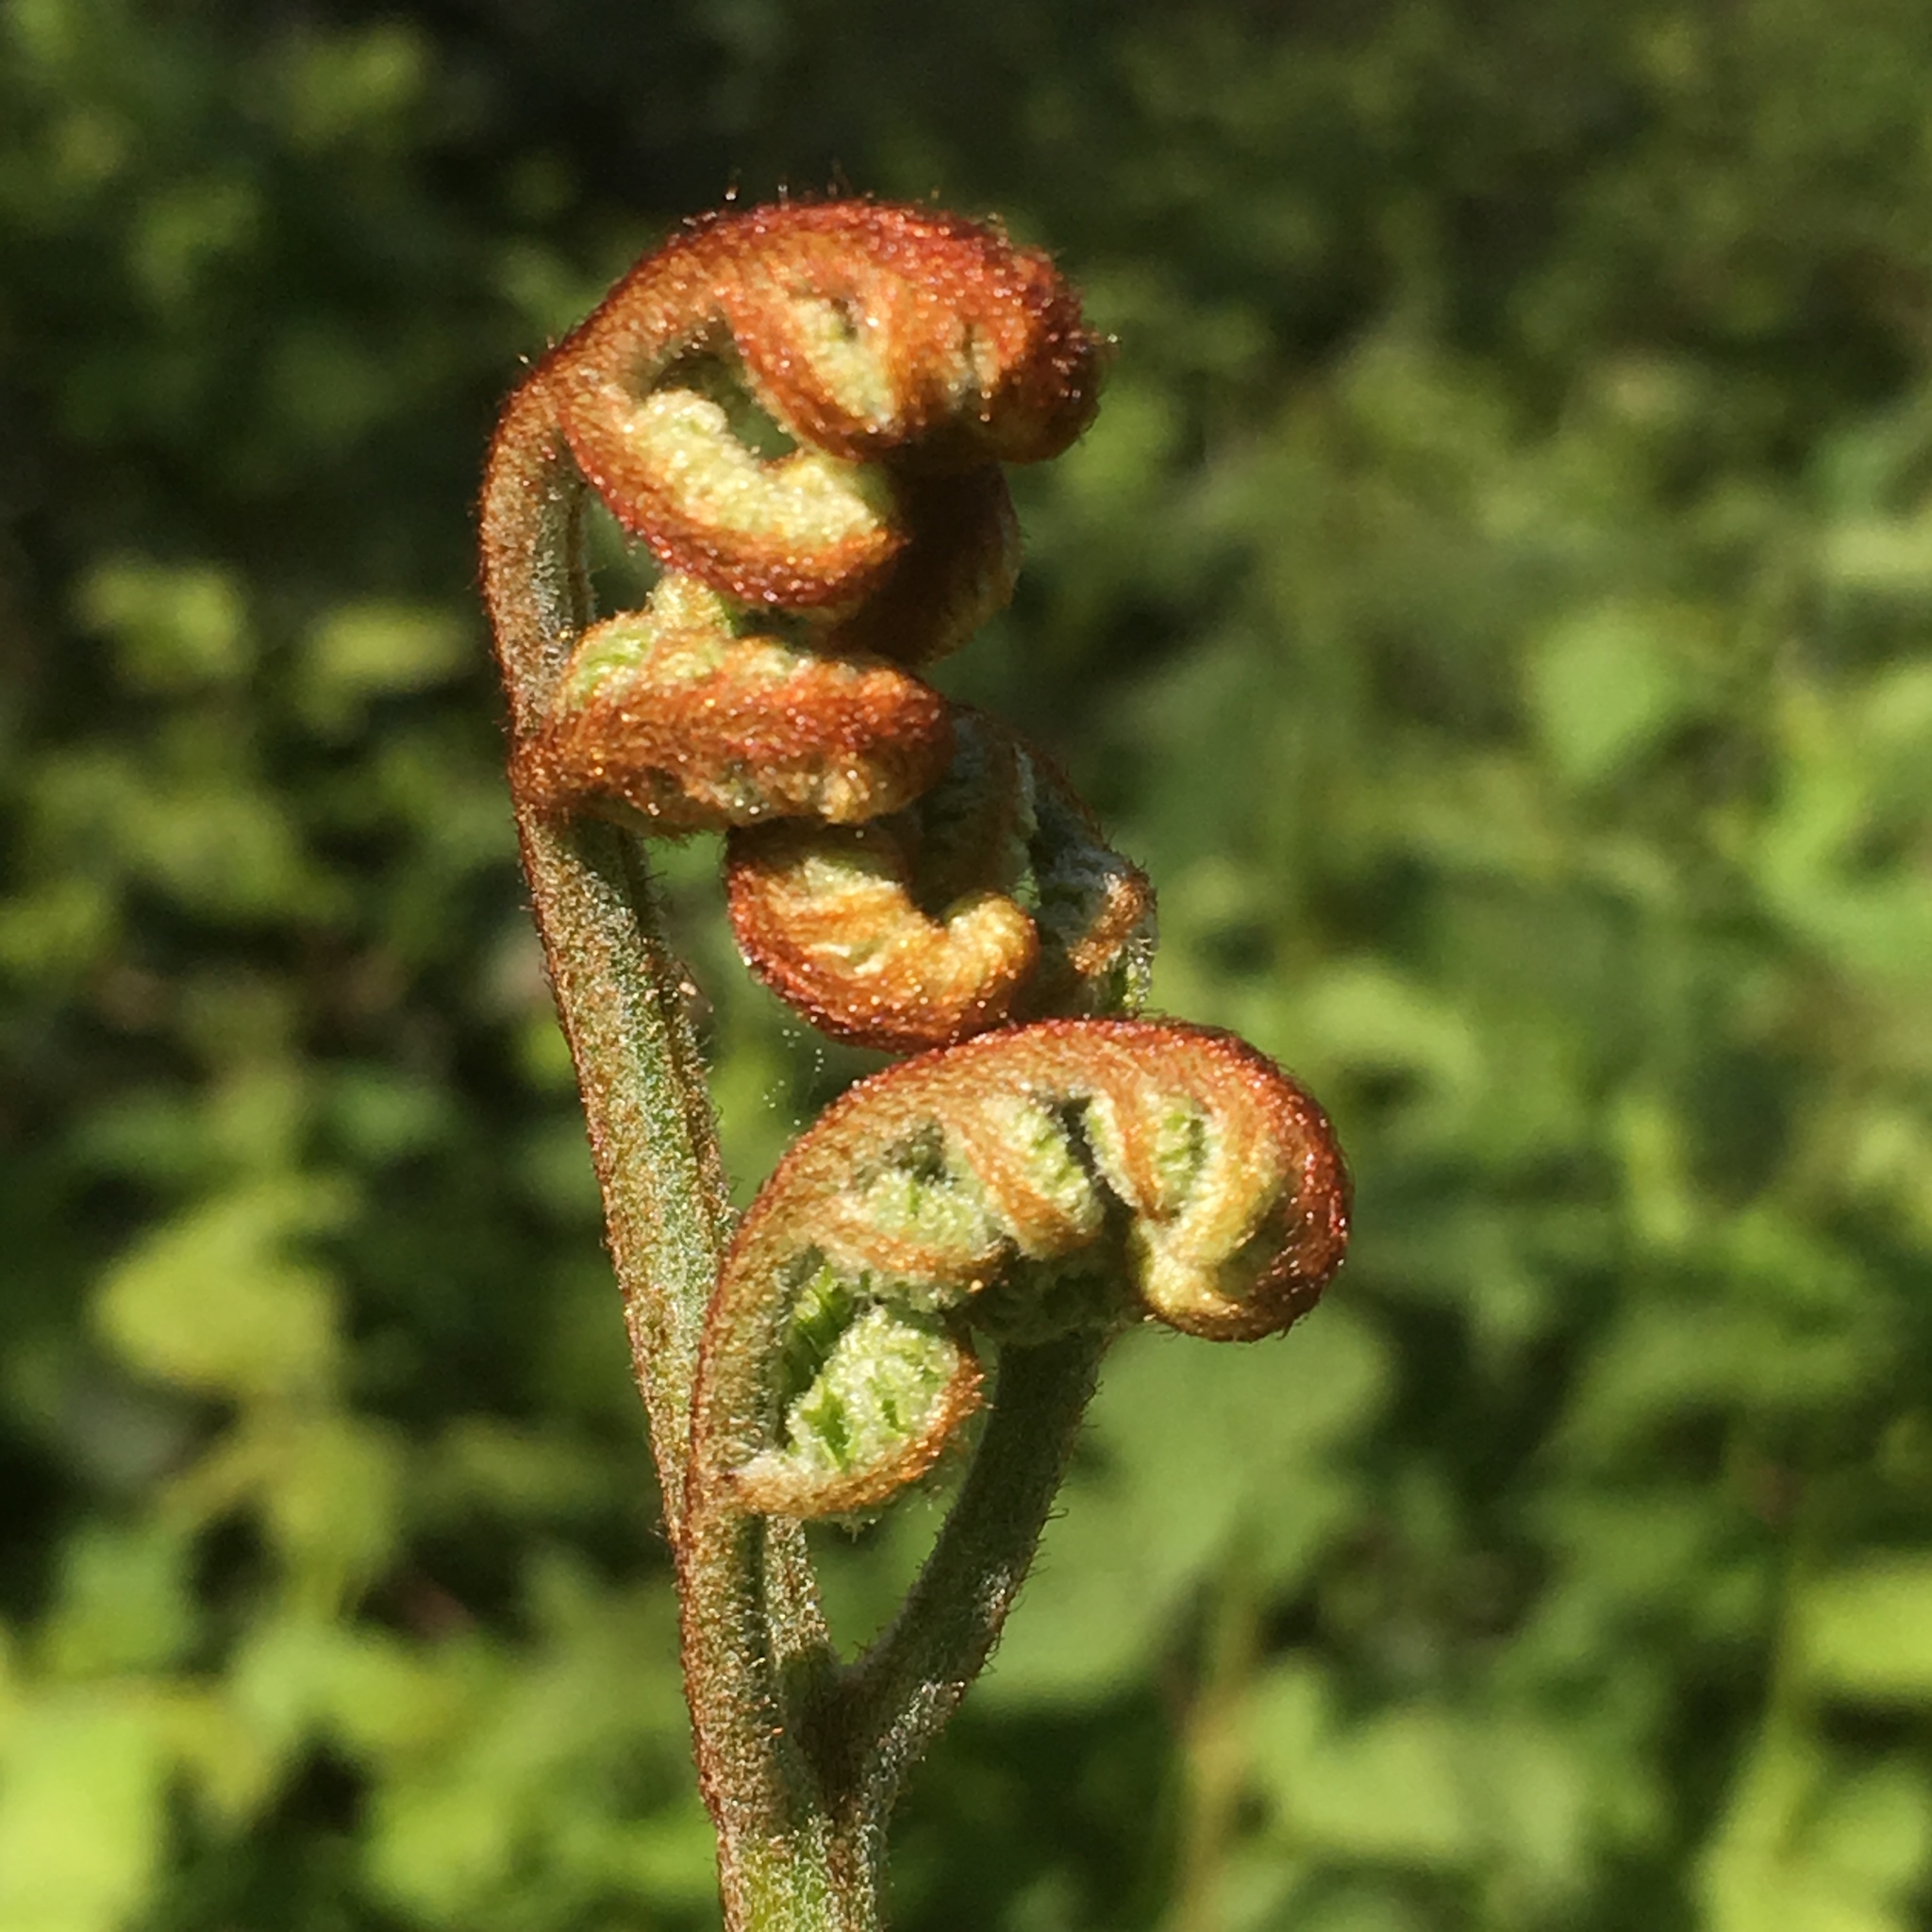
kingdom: Plantae
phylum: Tracheophyta
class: Polypodiopsida
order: Polypodiales
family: Dennstaedtiaceae
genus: Pteridium
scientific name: Pteridium aquilinum
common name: Bracken
